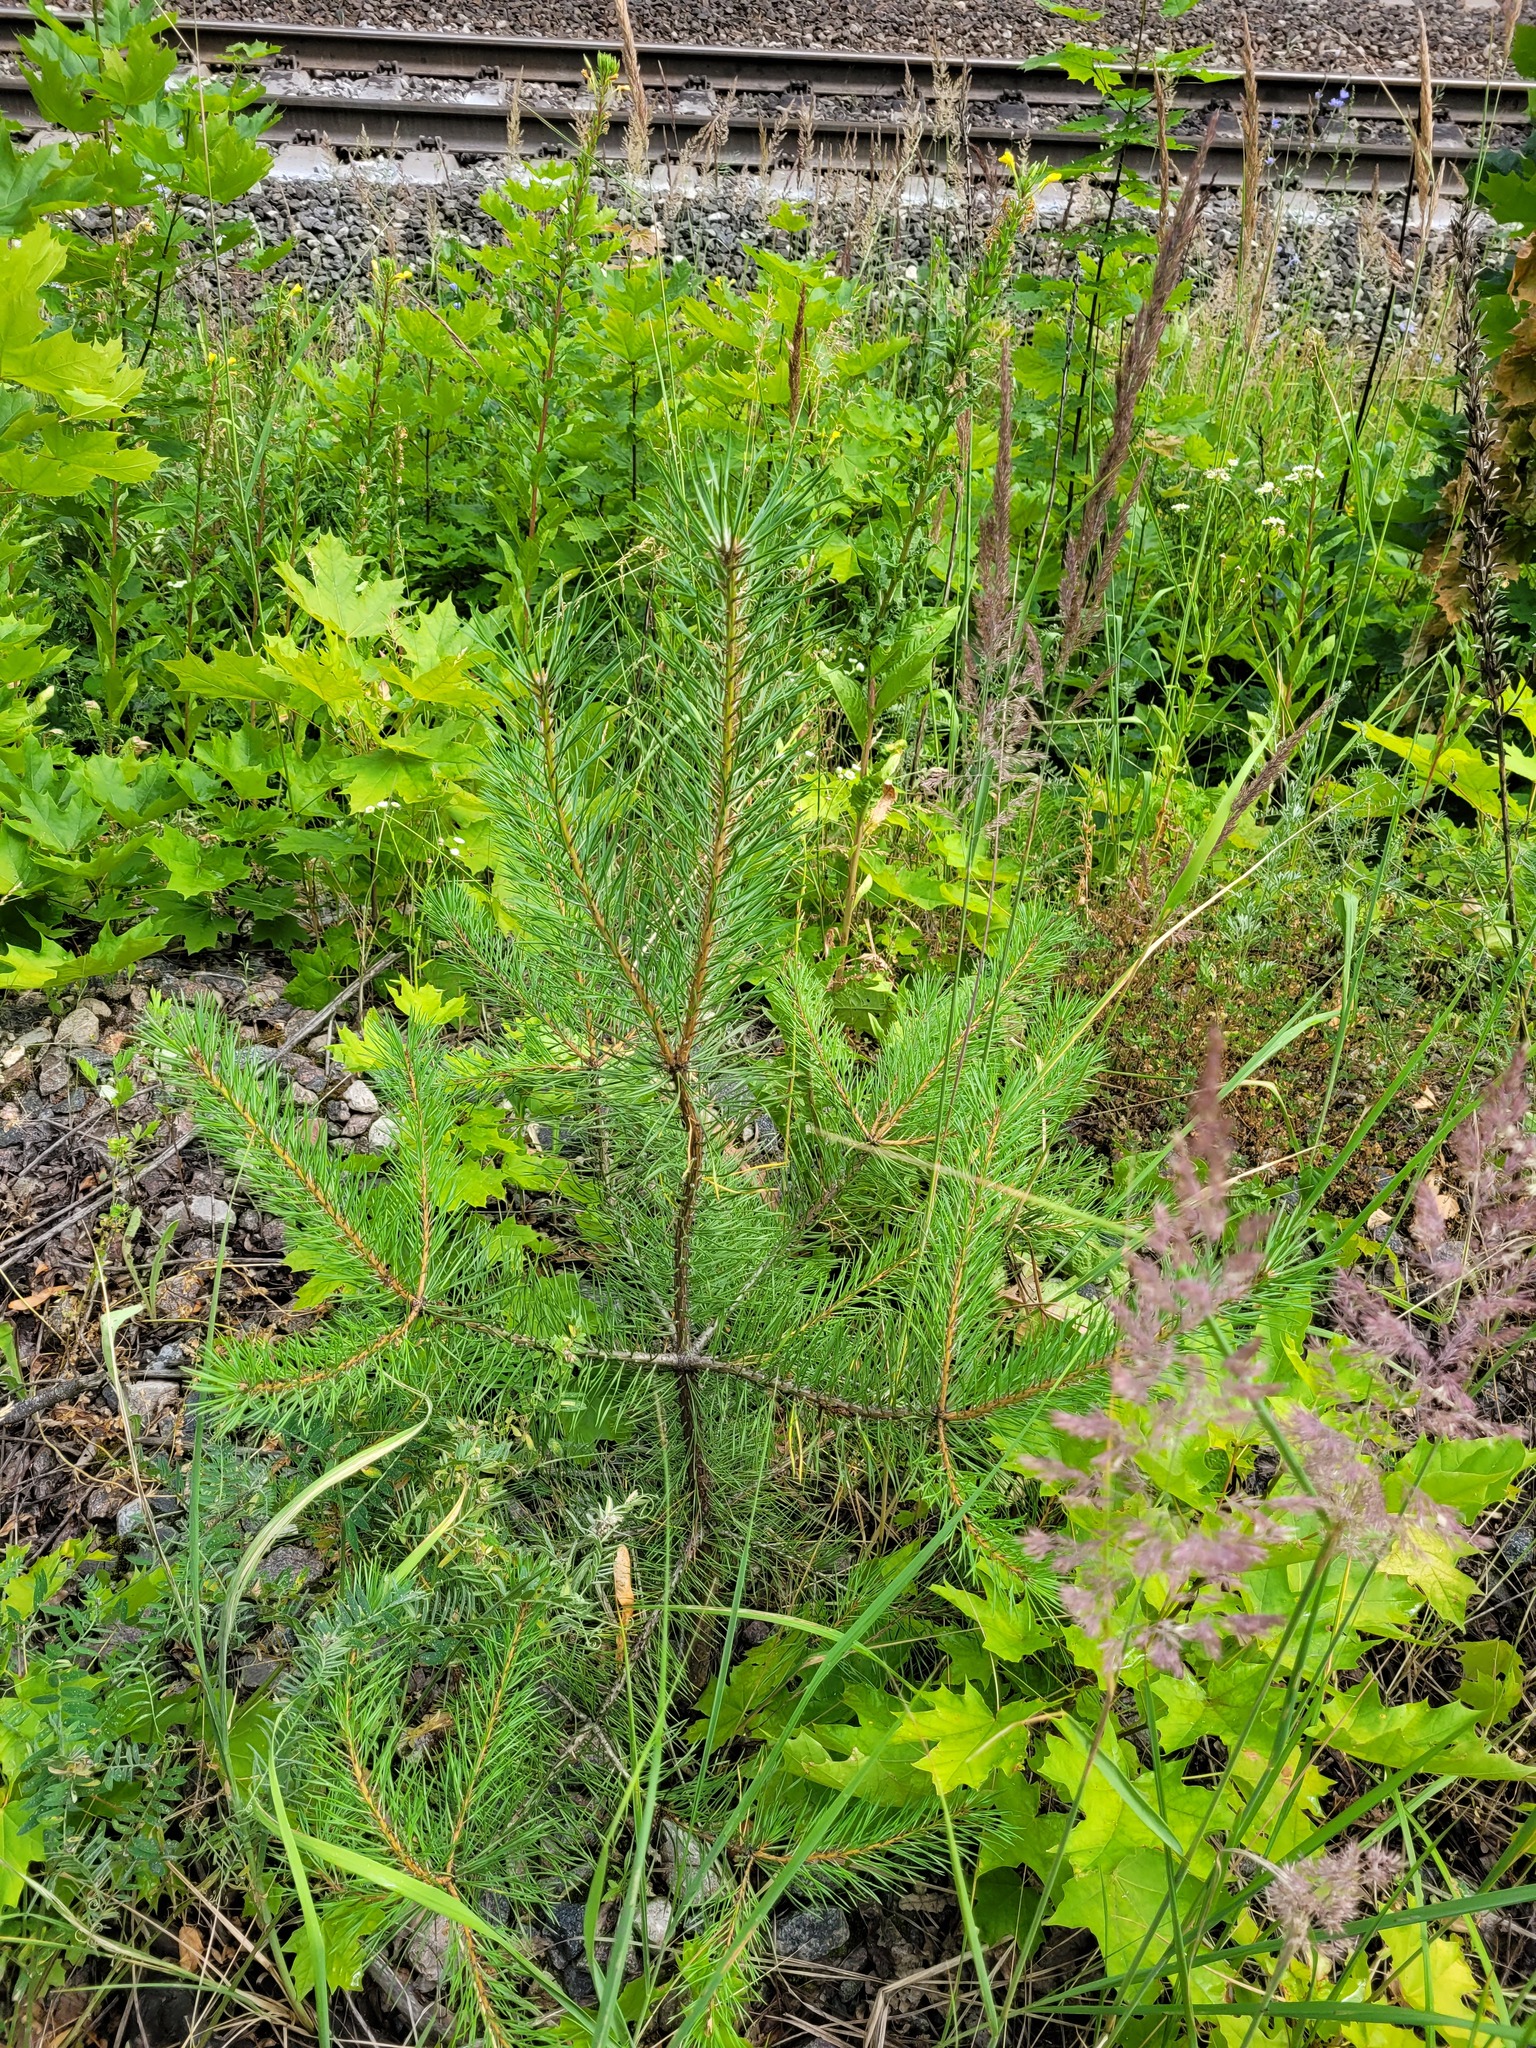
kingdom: Plantae
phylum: Tracheophyta
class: Pinopsida
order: Pinales
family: Pinaceae
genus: Pinus
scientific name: Pinus sylvestris
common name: Scots pine
